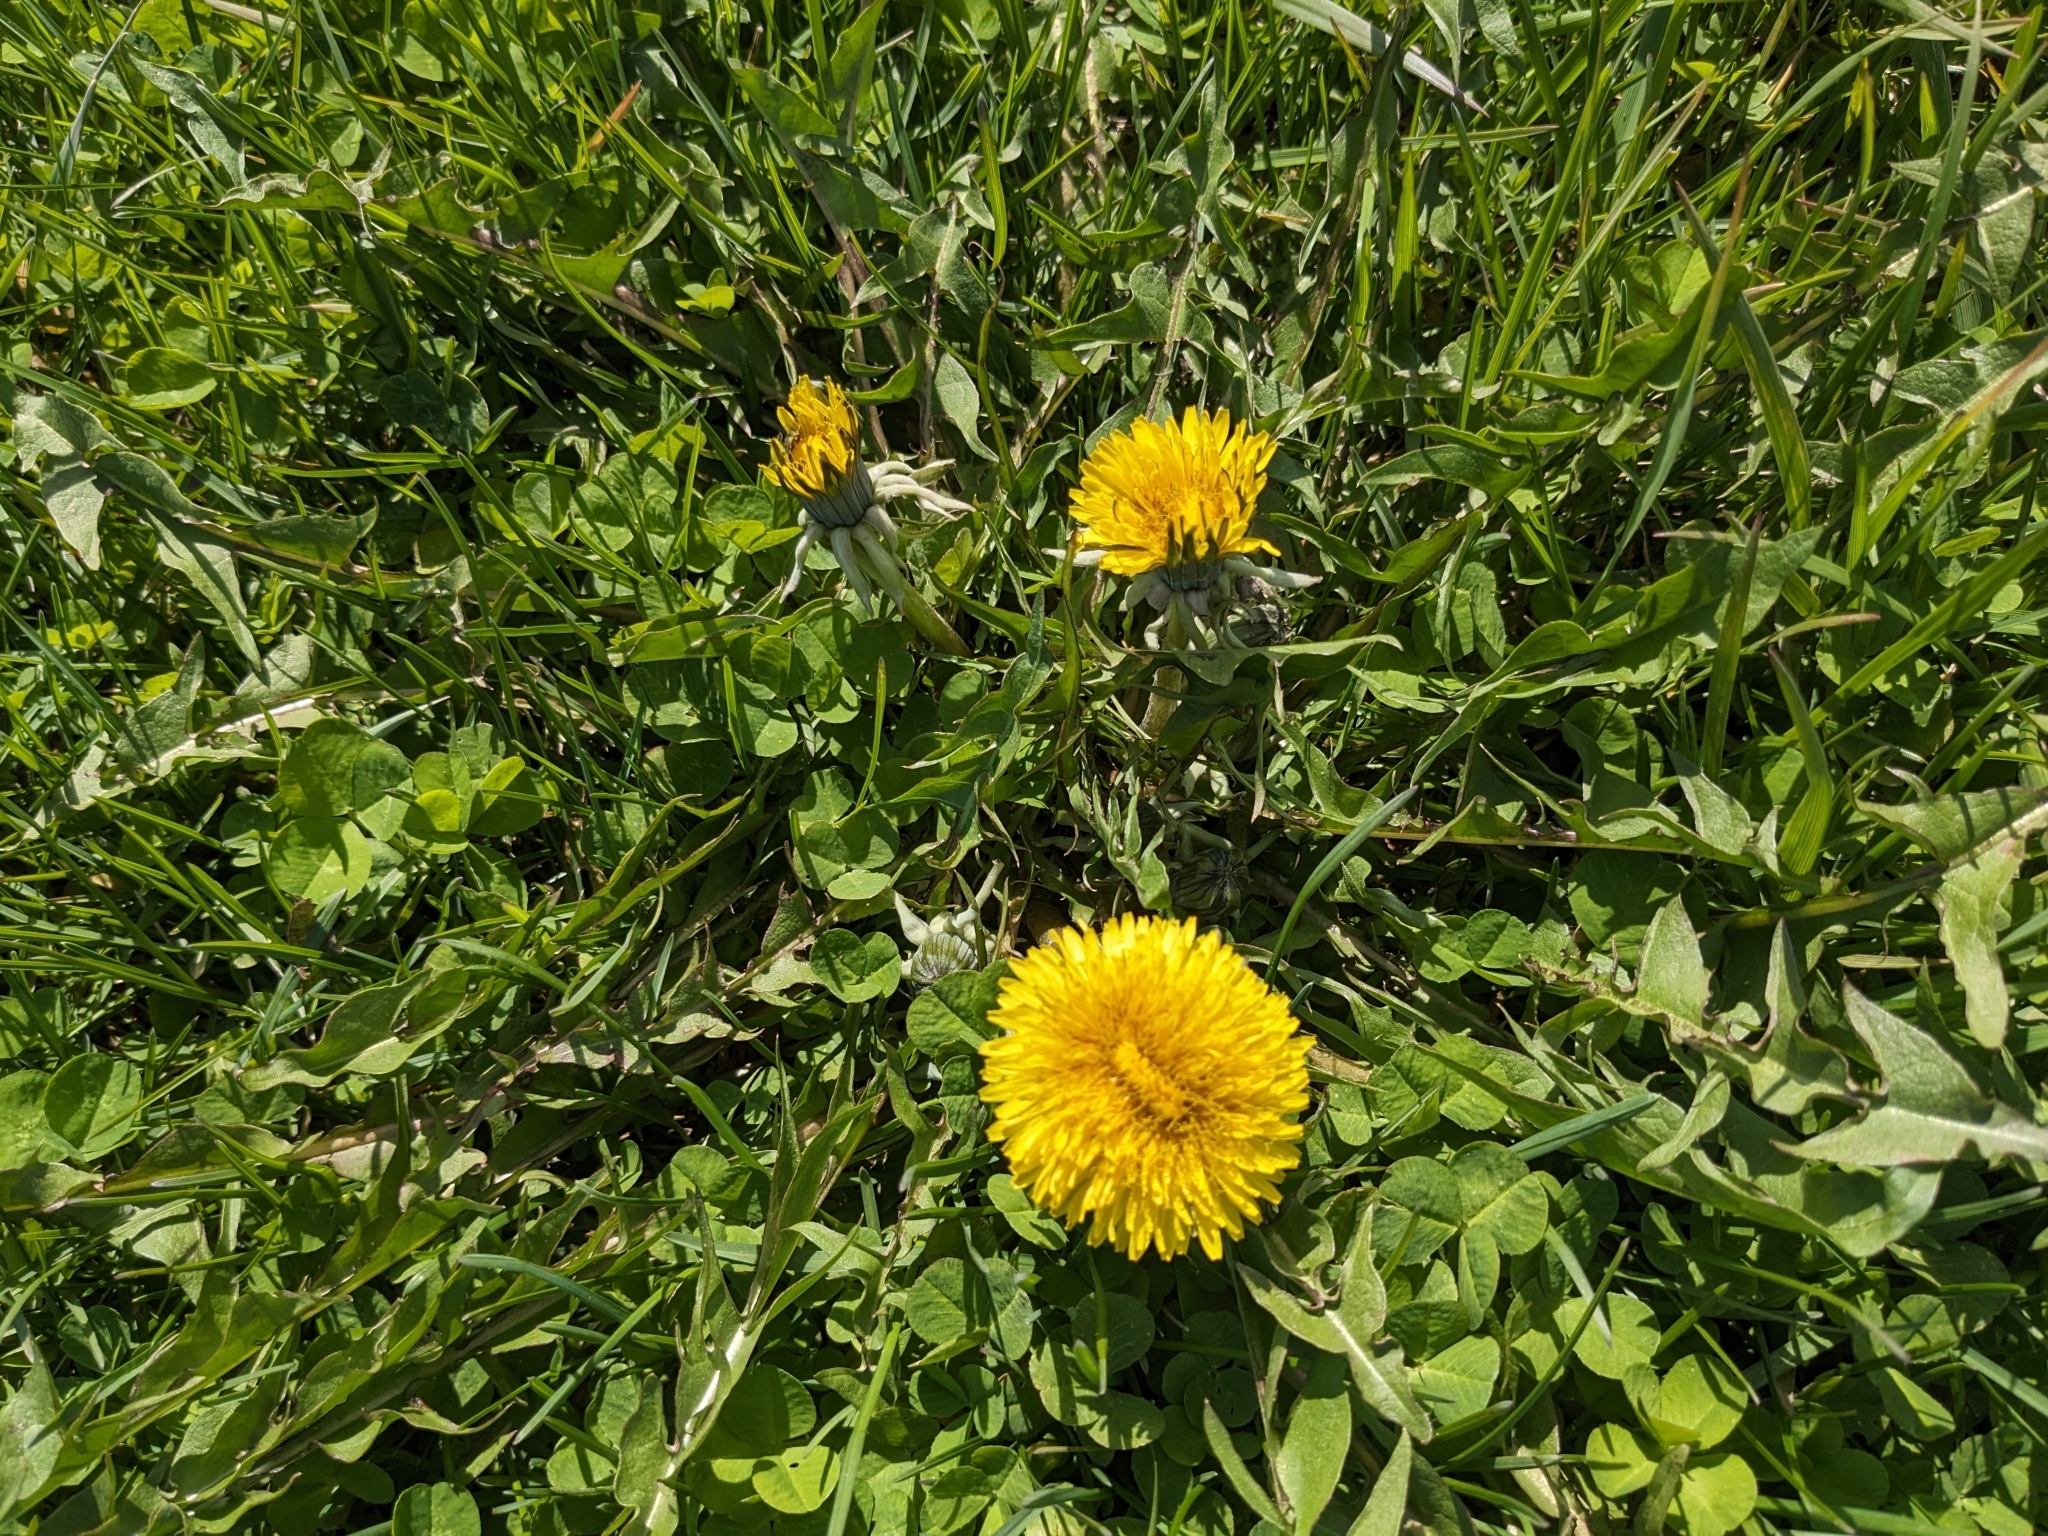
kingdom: Plantae
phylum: Tracheophyta
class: Magnoliopsida
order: Asterales
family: Asteraceae
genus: Taraxacum
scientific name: Taraxacum officinale
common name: Common dandelion
